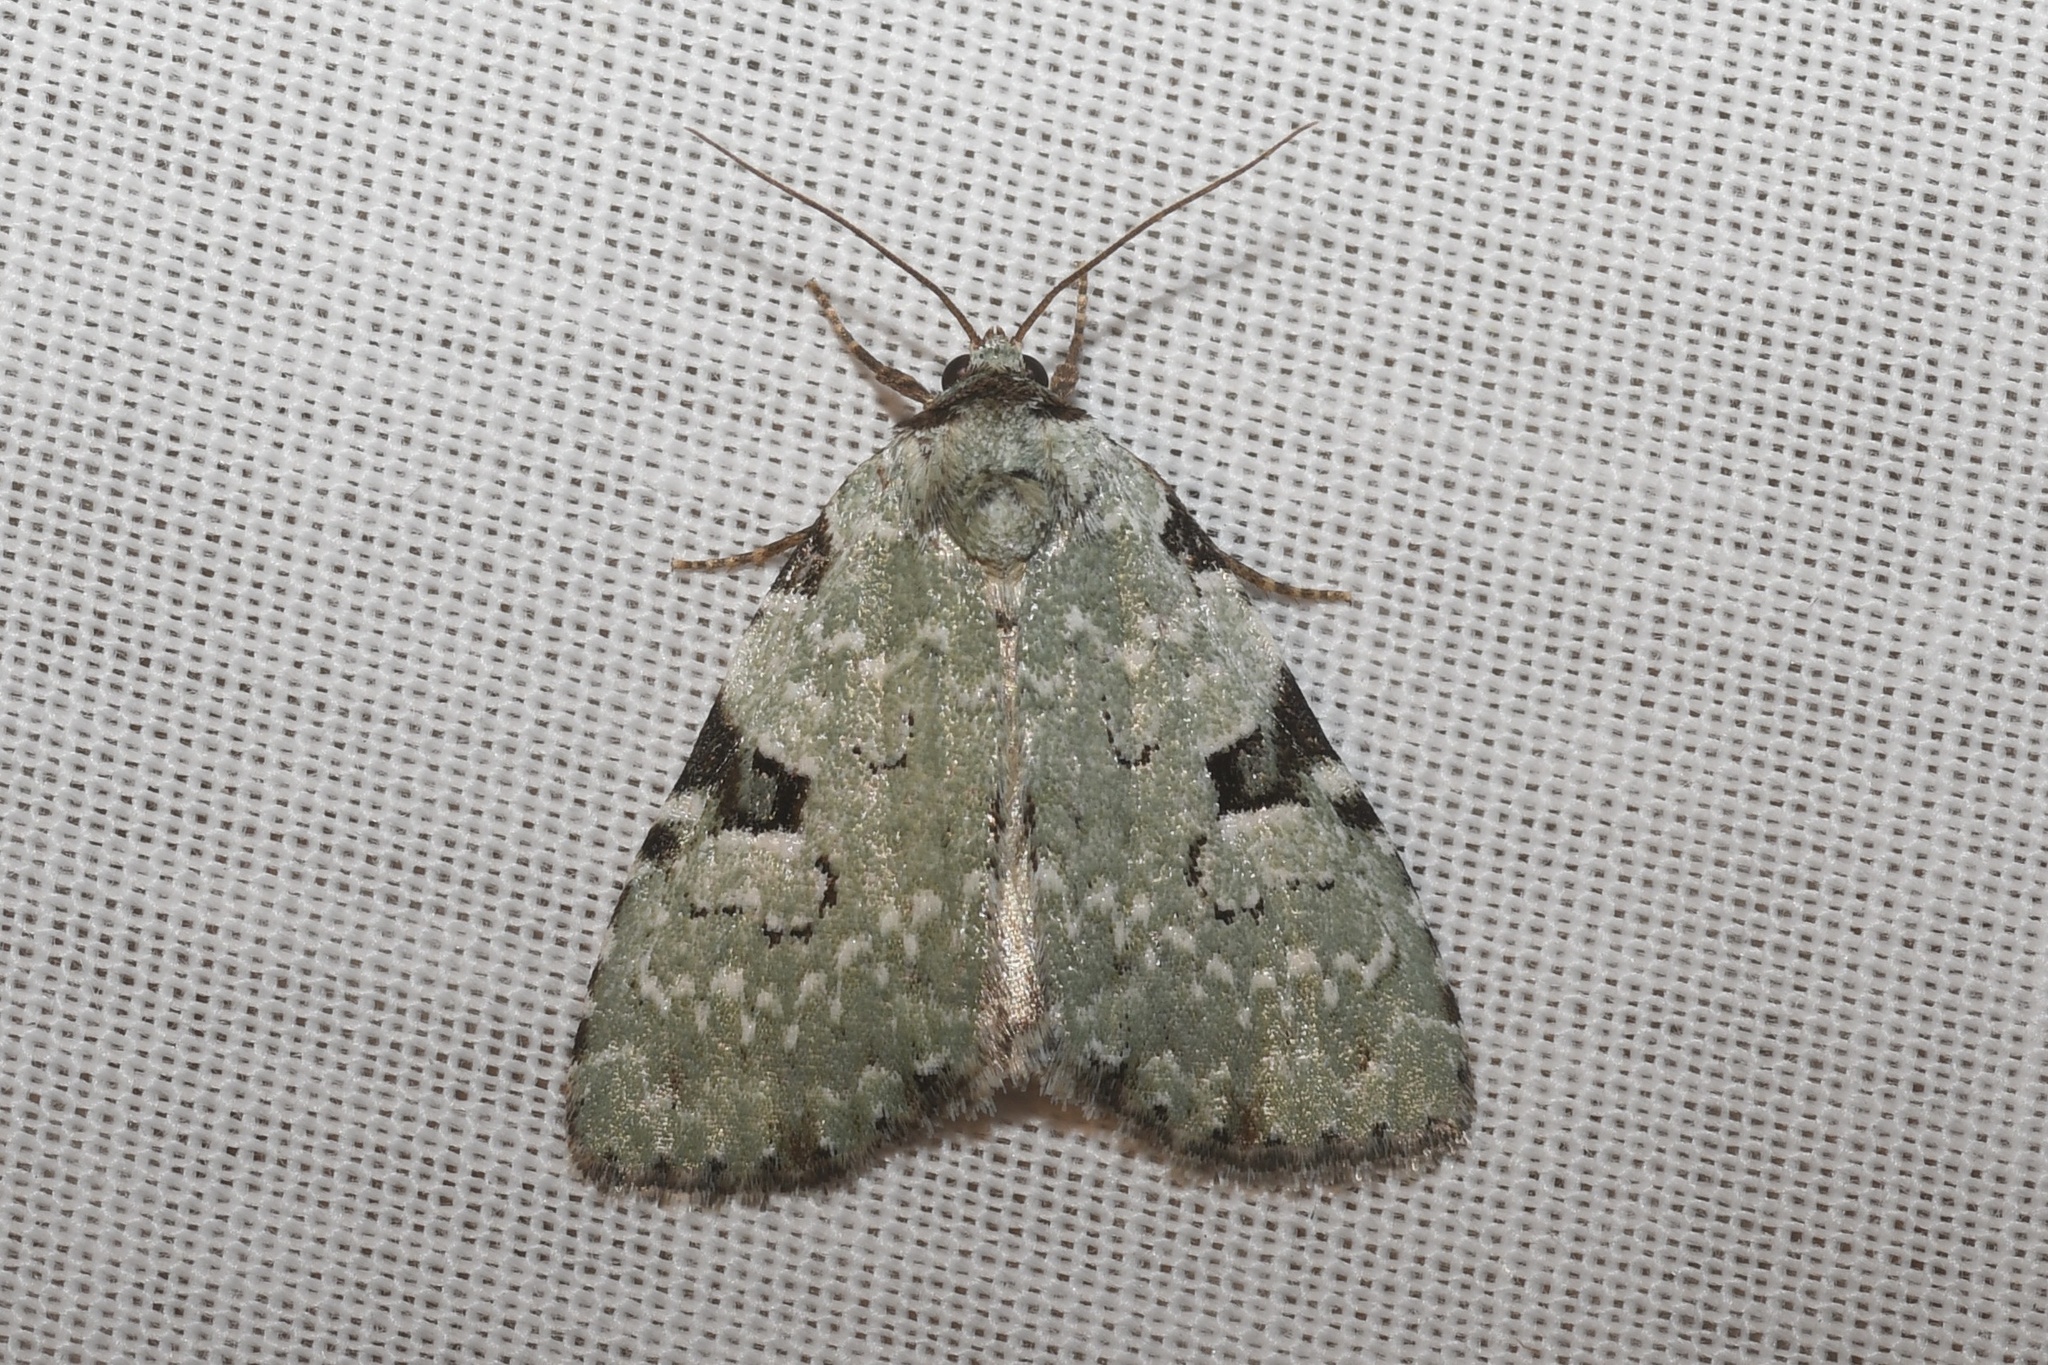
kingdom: Animalia
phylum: Arthropoda
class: Insecta
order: Lepidoptera
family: Noctuidae
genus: Leuconycta
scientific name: Leuconycta diphteroides
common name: Green leuconycta moth
